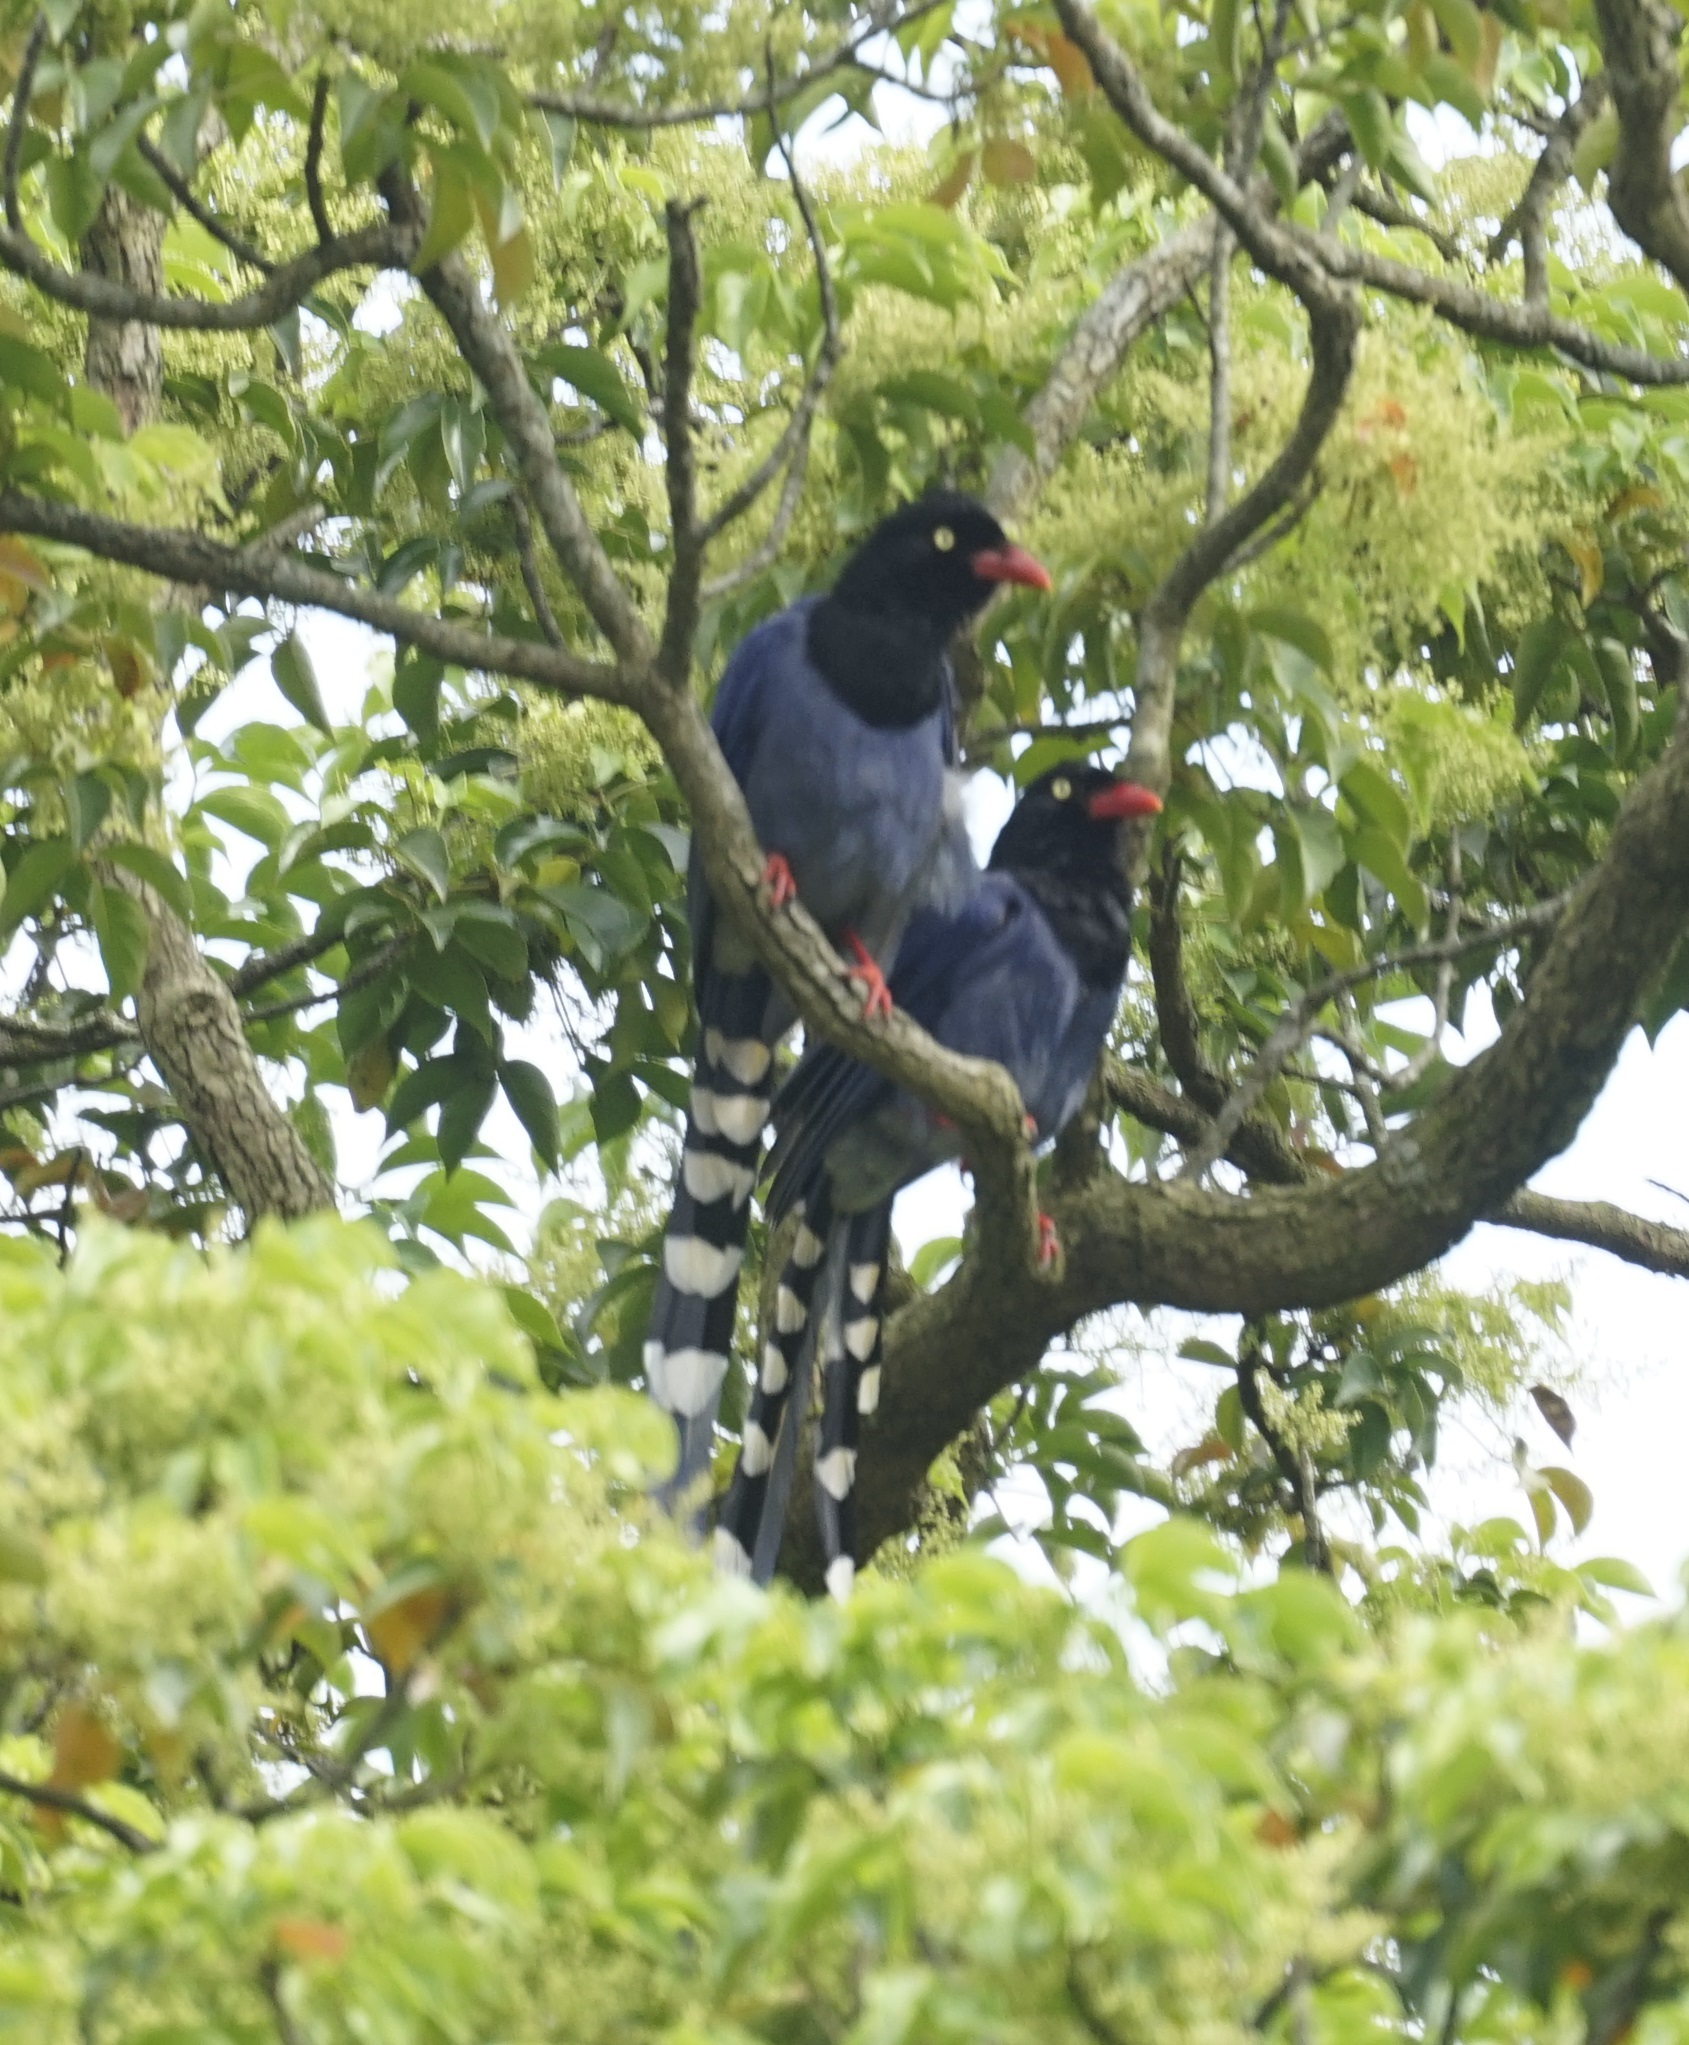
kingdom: Animalia
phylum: Chordata
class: Aves
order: Passeriformes
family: Corvidae
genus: Urocissa
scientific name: Urocissa caerulea
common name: Taiwan blue magpie
